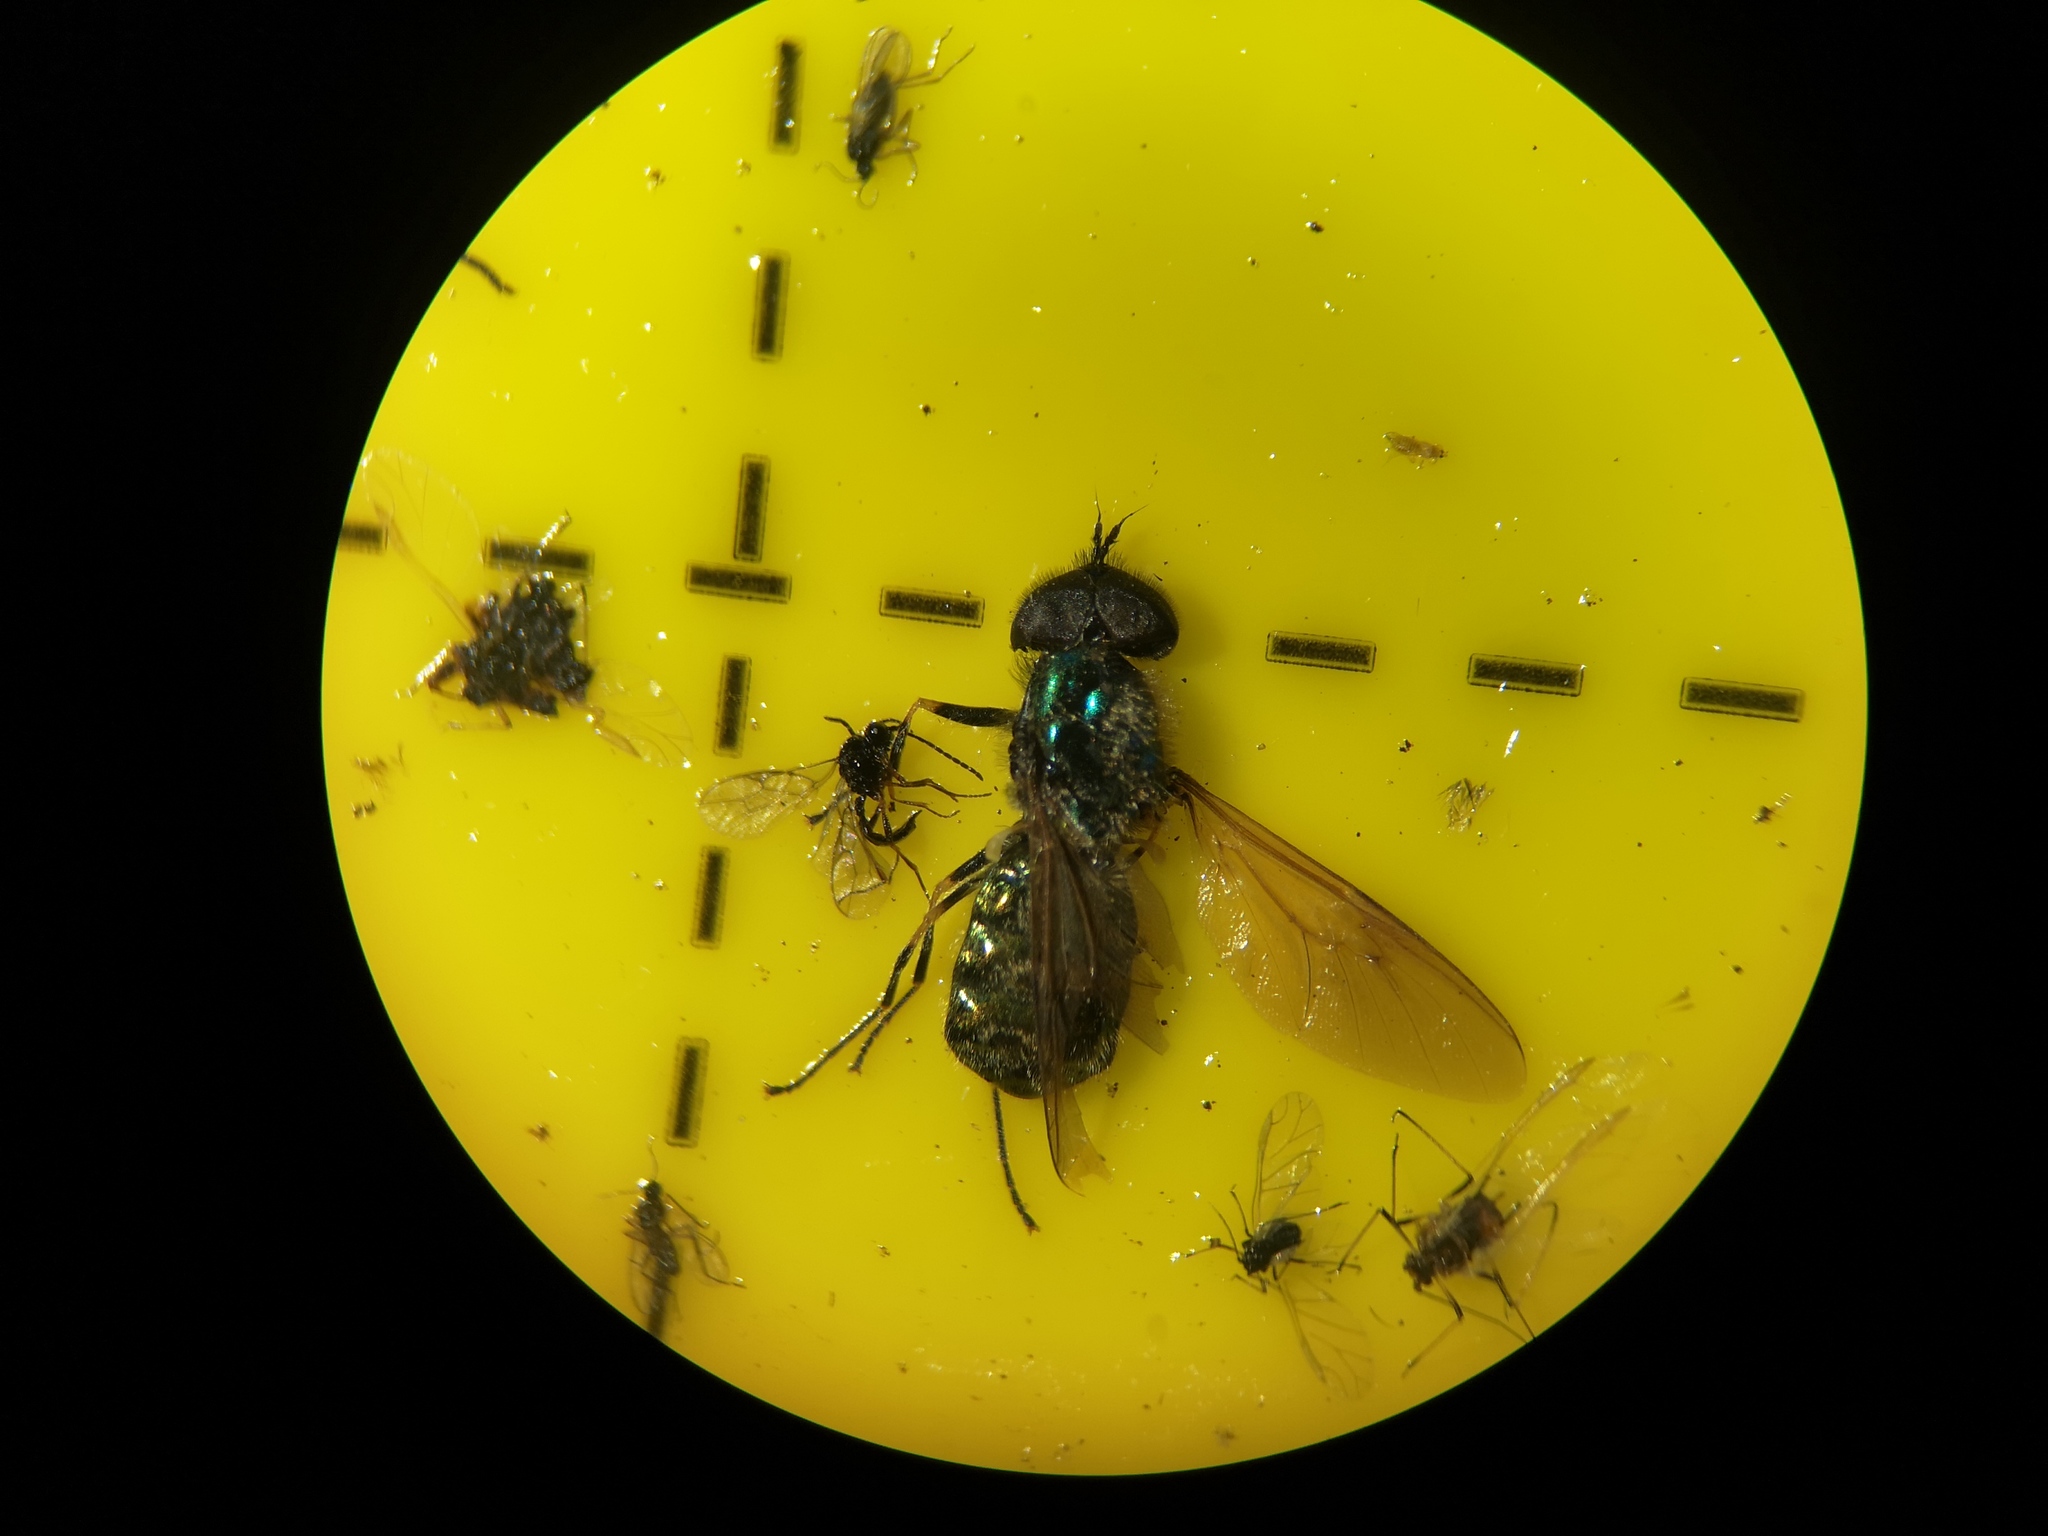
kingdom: Animalia
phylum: Arthropoda
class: Insecta
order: Diptera
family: Stratiomyidae
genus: Chloromyia
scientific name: Chloromyia formosa
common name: Soldier fly
